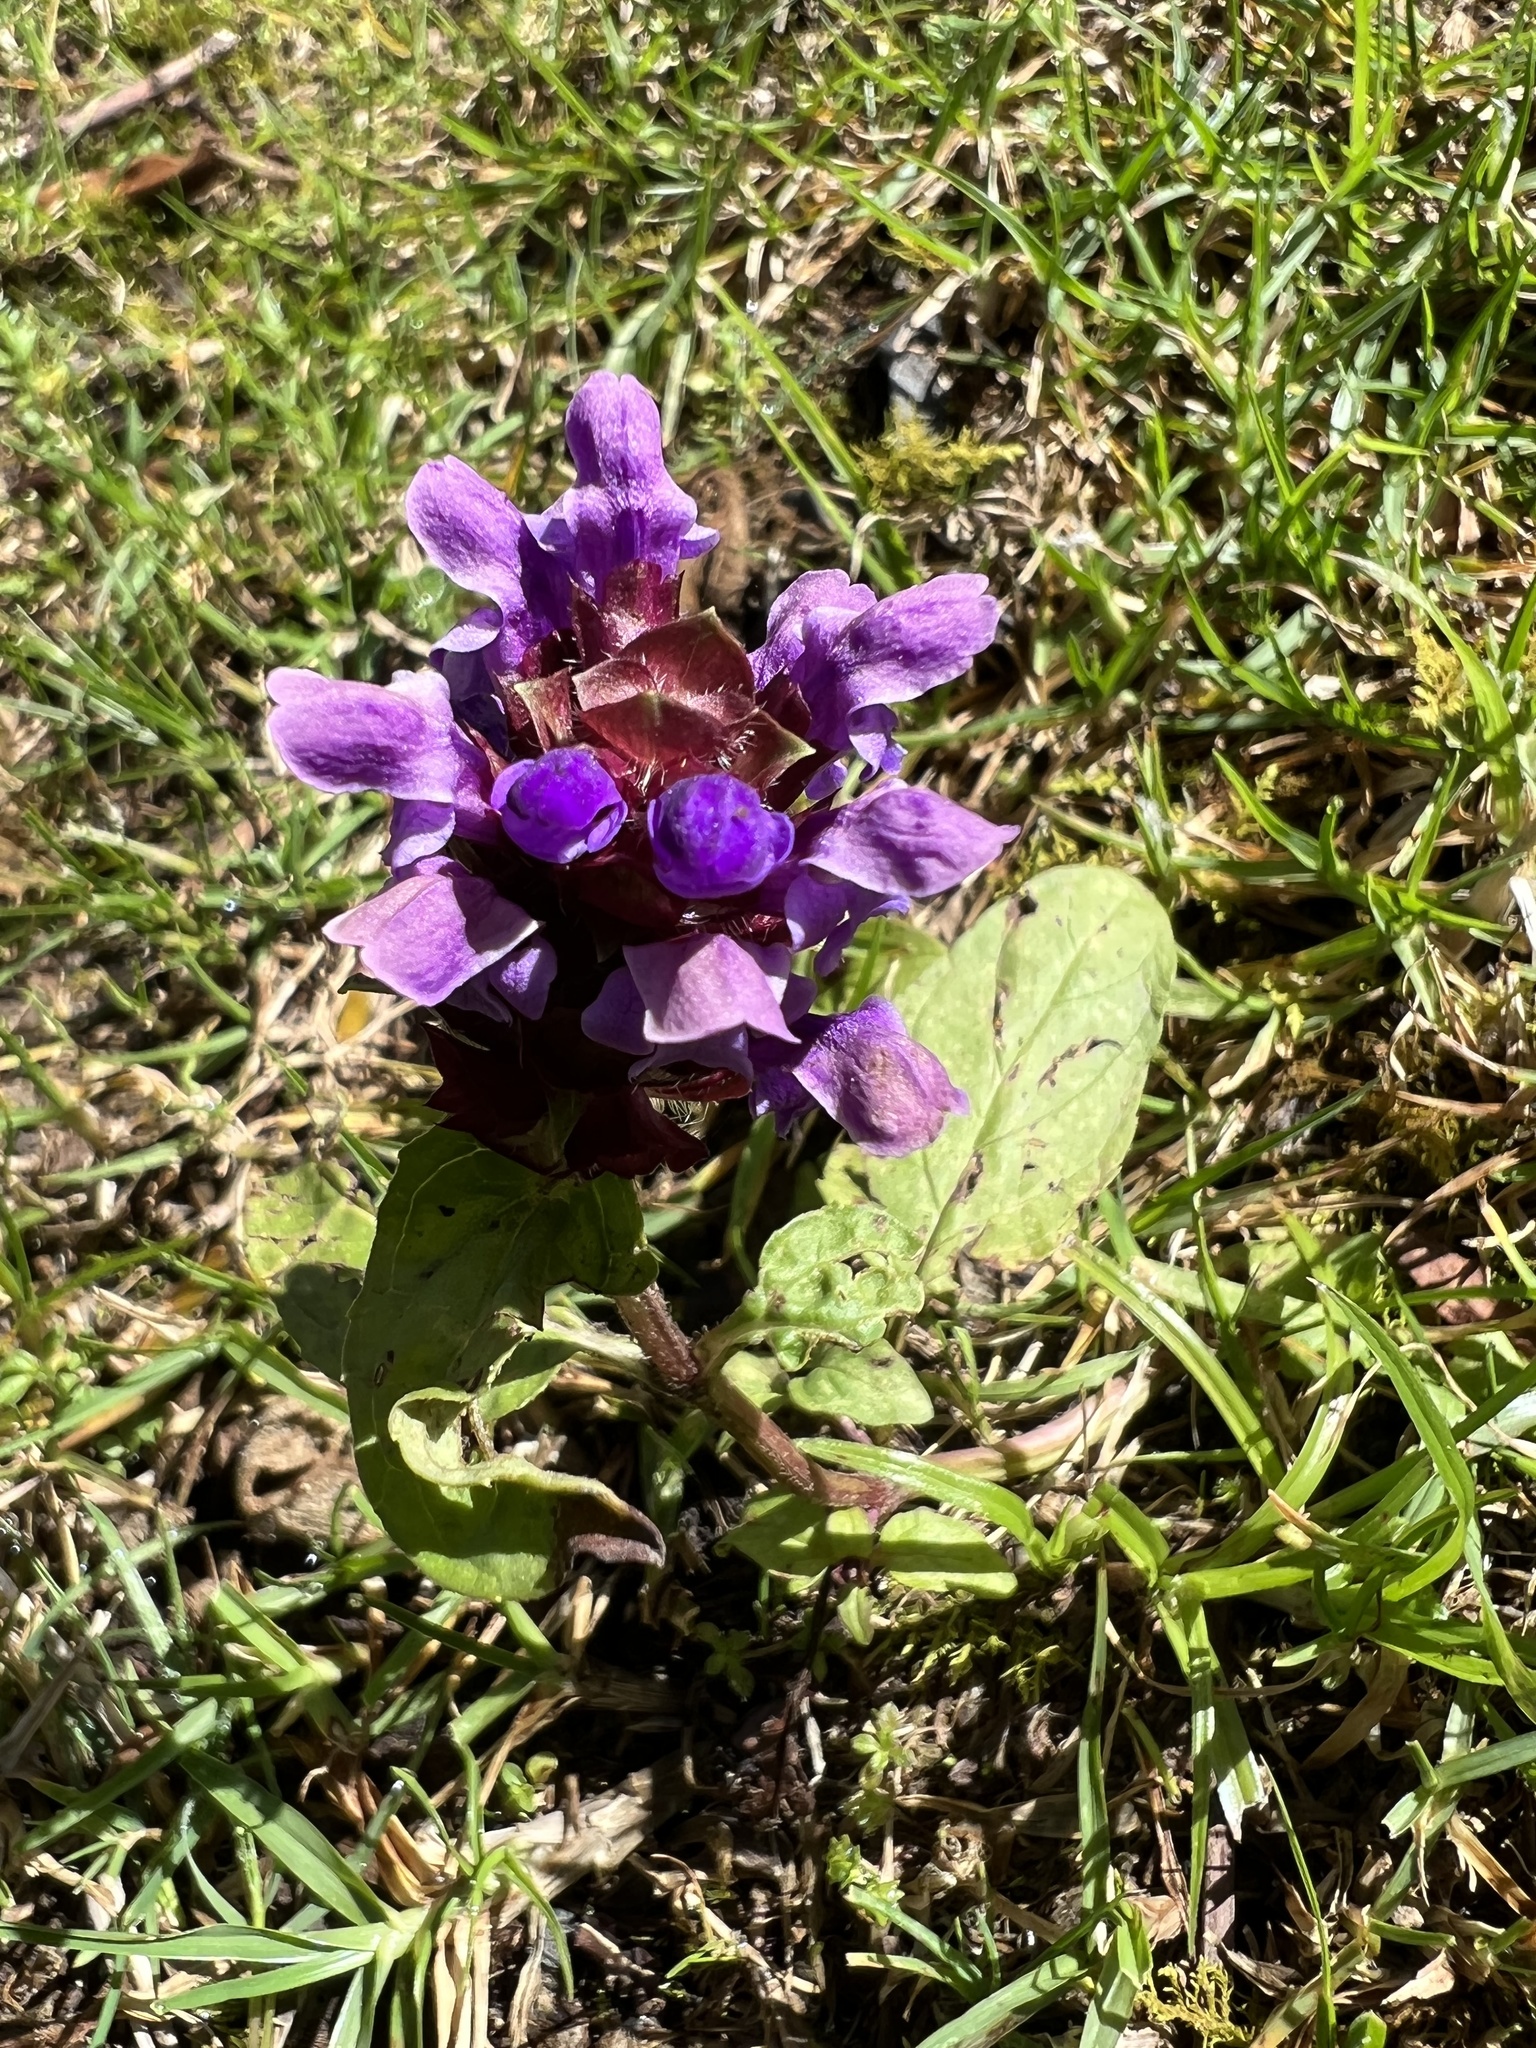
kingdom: Plantae
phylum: Tracheophyta
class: Magnoliopsida
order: Lamiales
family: Lamiaceae
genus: Prunella
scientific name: Prunella vulgaris
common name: Heal-all
